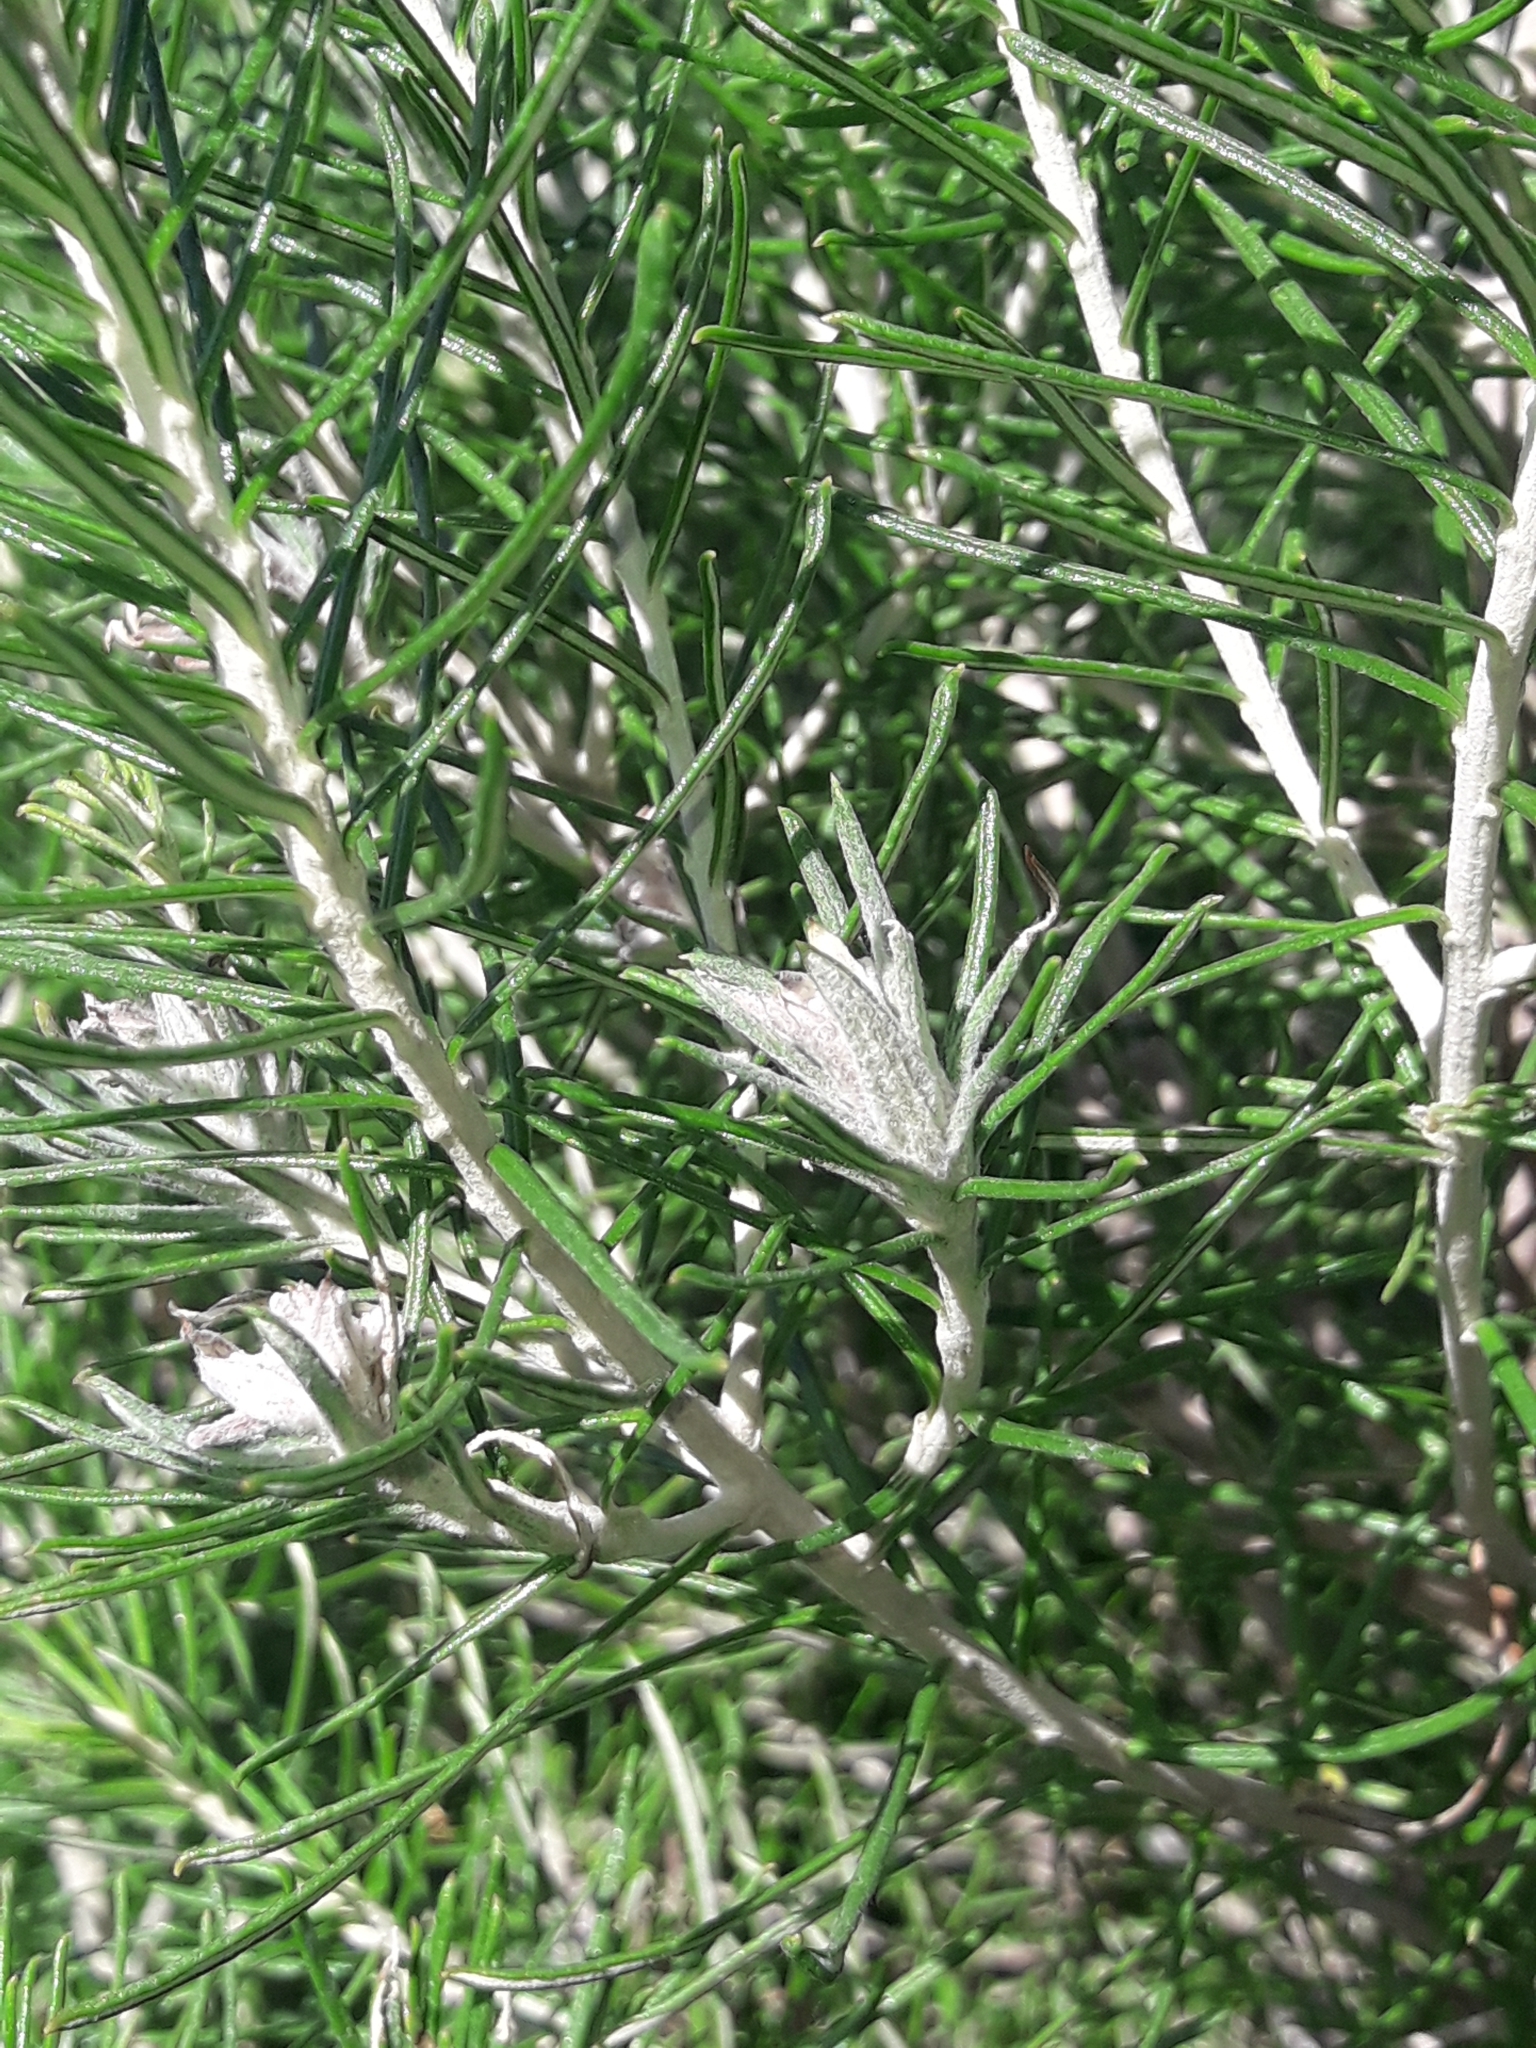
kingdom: Plantae
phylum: Tracheophyta
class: Magnoliopsida
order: Asterales
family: Asteraceae
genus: Cassinia
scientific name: Cassinia tenuifolia
